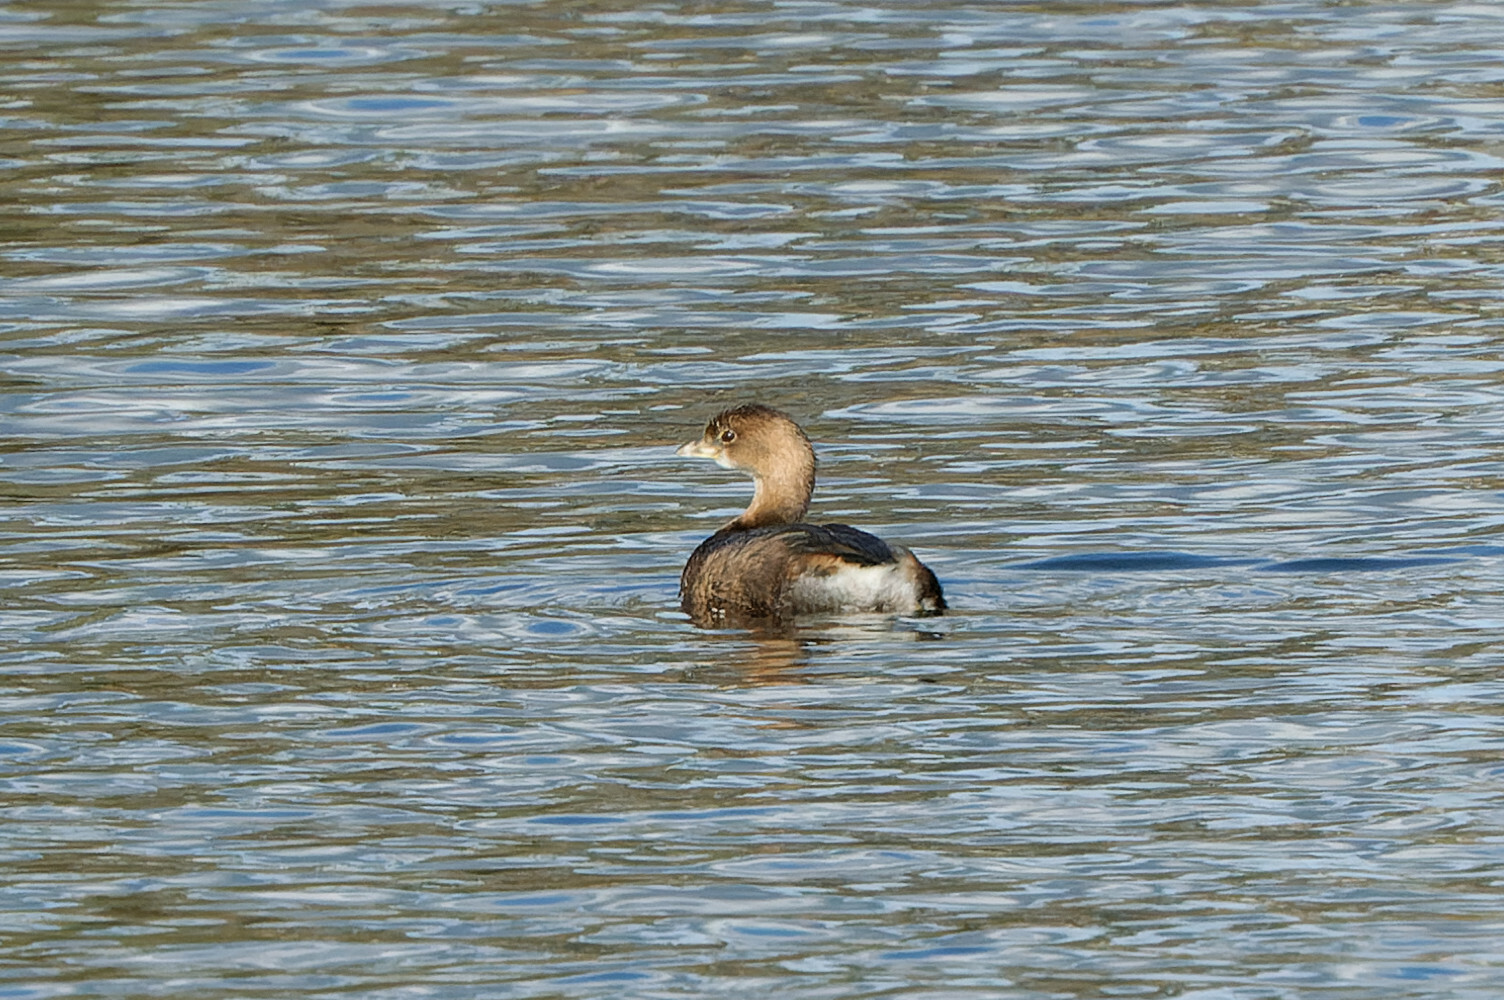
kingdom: Animalia
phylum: Chordata
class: Aves
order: Podicipediformes
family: Podicipedidae
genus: Podilymbus
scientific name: Podilymbus podiceps
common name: Pied-billed grebe
